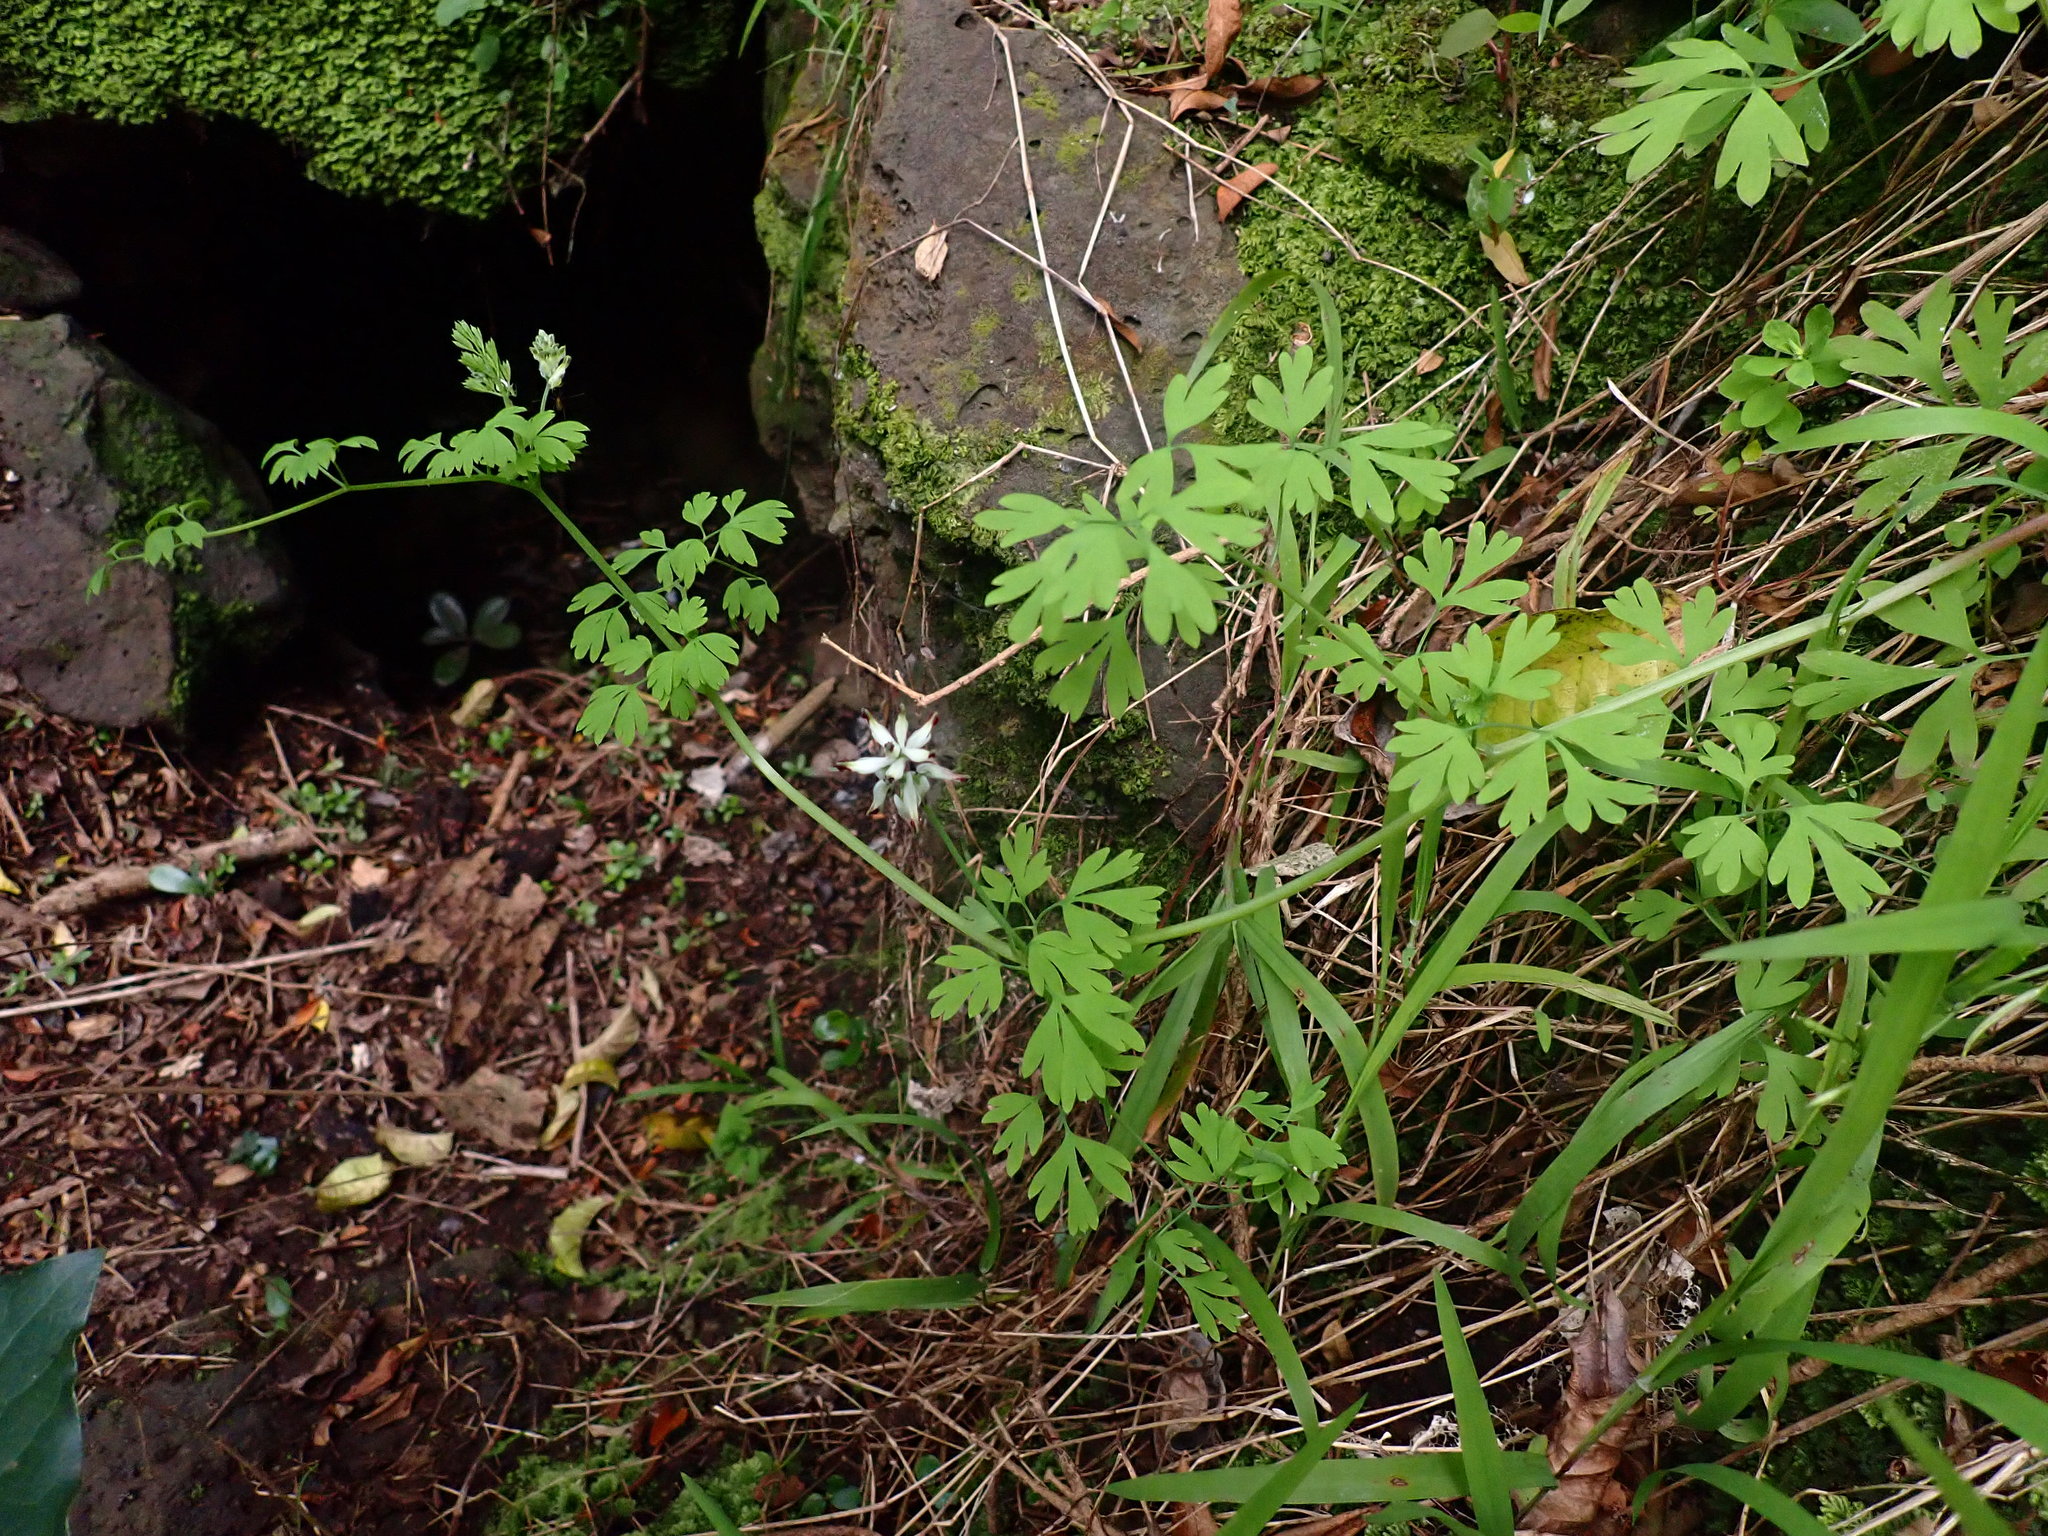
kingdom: Plantae
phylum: Tracheophyta
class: Magnoliopsida
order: Ranunculales
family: Papaveraceae
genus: Fumaria
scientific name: Fumaria capreolata
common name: White ramping-fumitory
